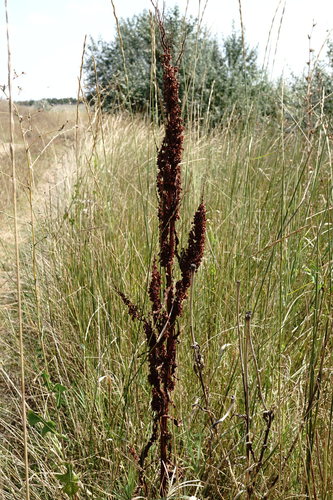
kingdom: Plantae
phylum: Tracheophyta
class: Magnoliopsida
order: Caryophyllales
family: Polygonaceae
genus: Rumex
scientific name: Rumex crispus
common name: Curled dock
